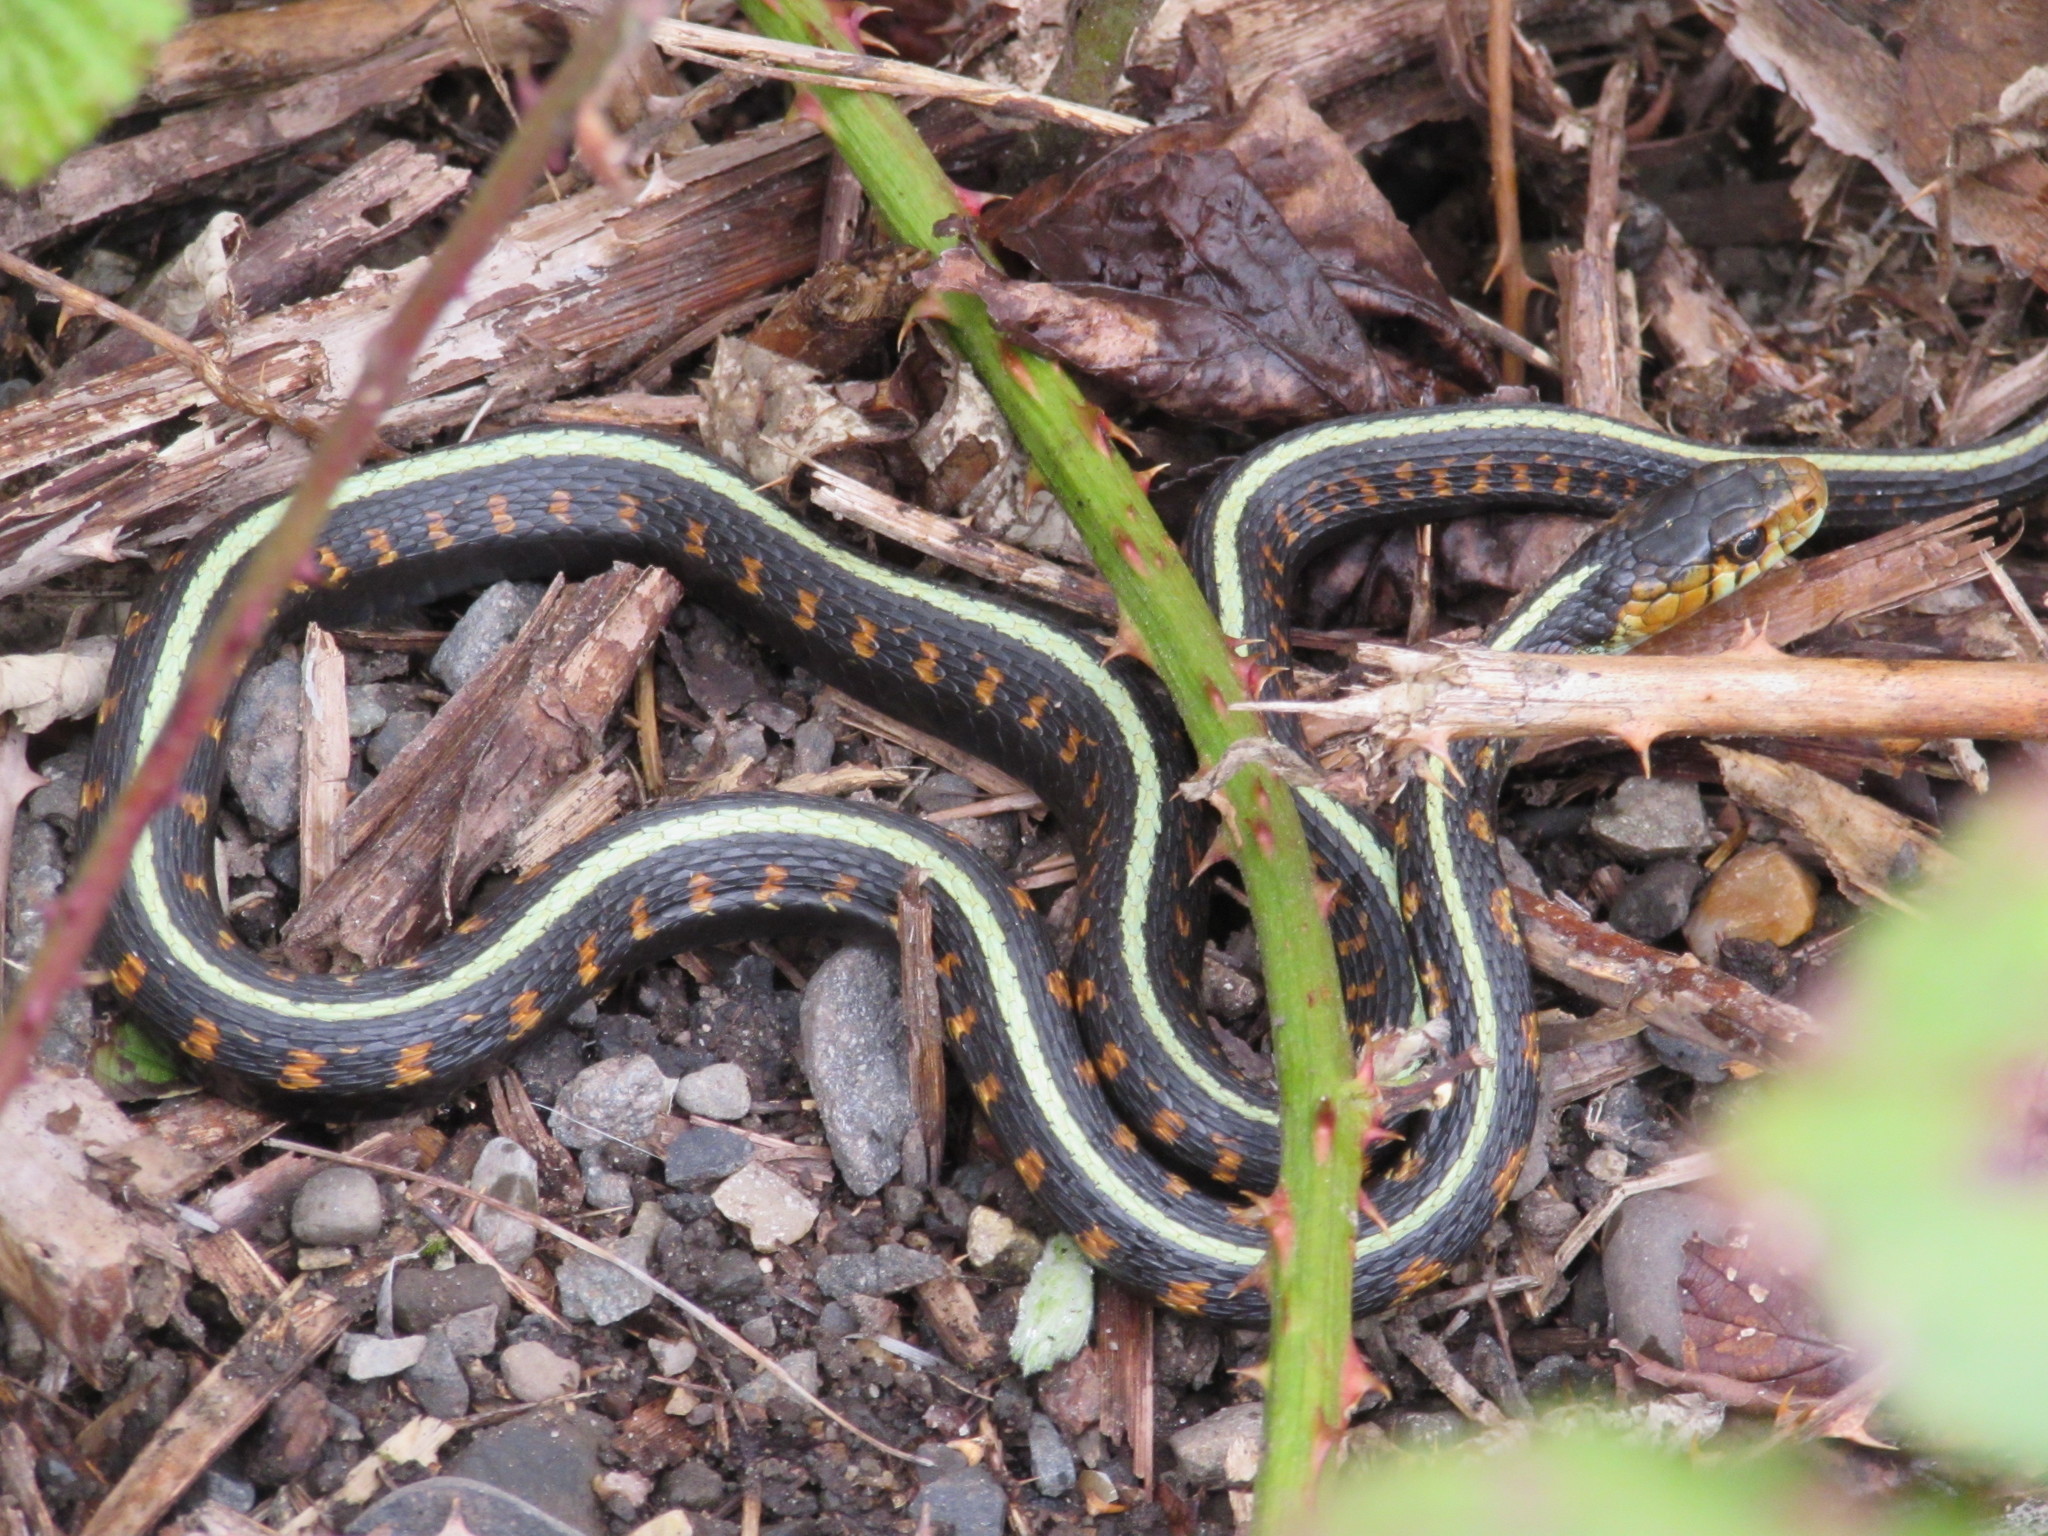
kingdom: Animalia
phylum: Chordata
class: Squamata
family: Colubridae
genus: Thamnophis
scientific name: Thamnophis sirtalis
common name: Common garter snake
